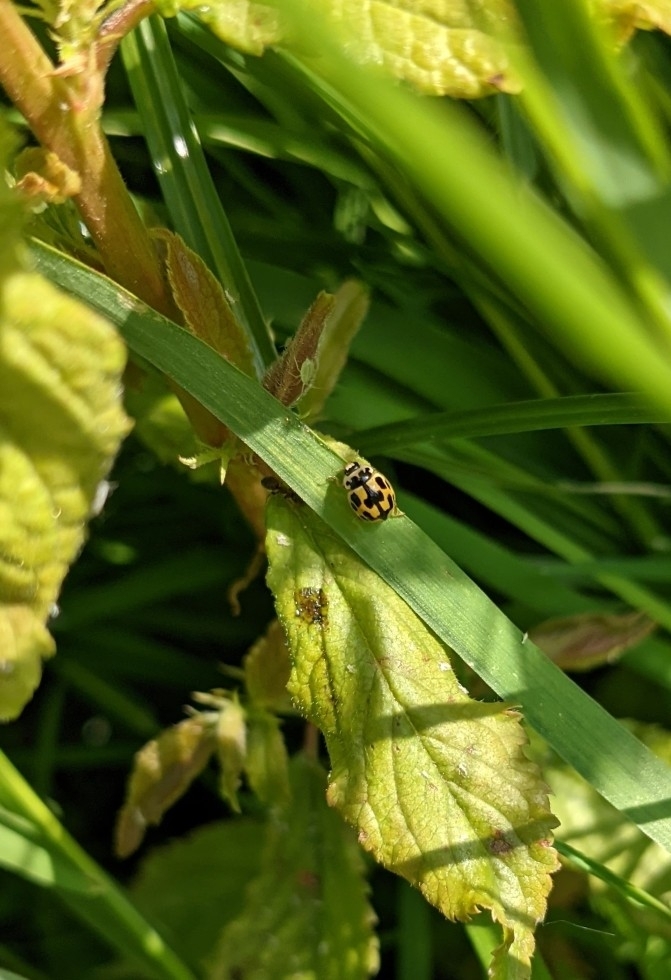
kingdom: Animalia
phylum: Arthropoda
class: Insecta
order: Coleoptera
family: Coccinellidae
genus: Propylaea
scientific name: Propylaea quatuordecimpunctata
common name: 14-spotted ladybird beetle
